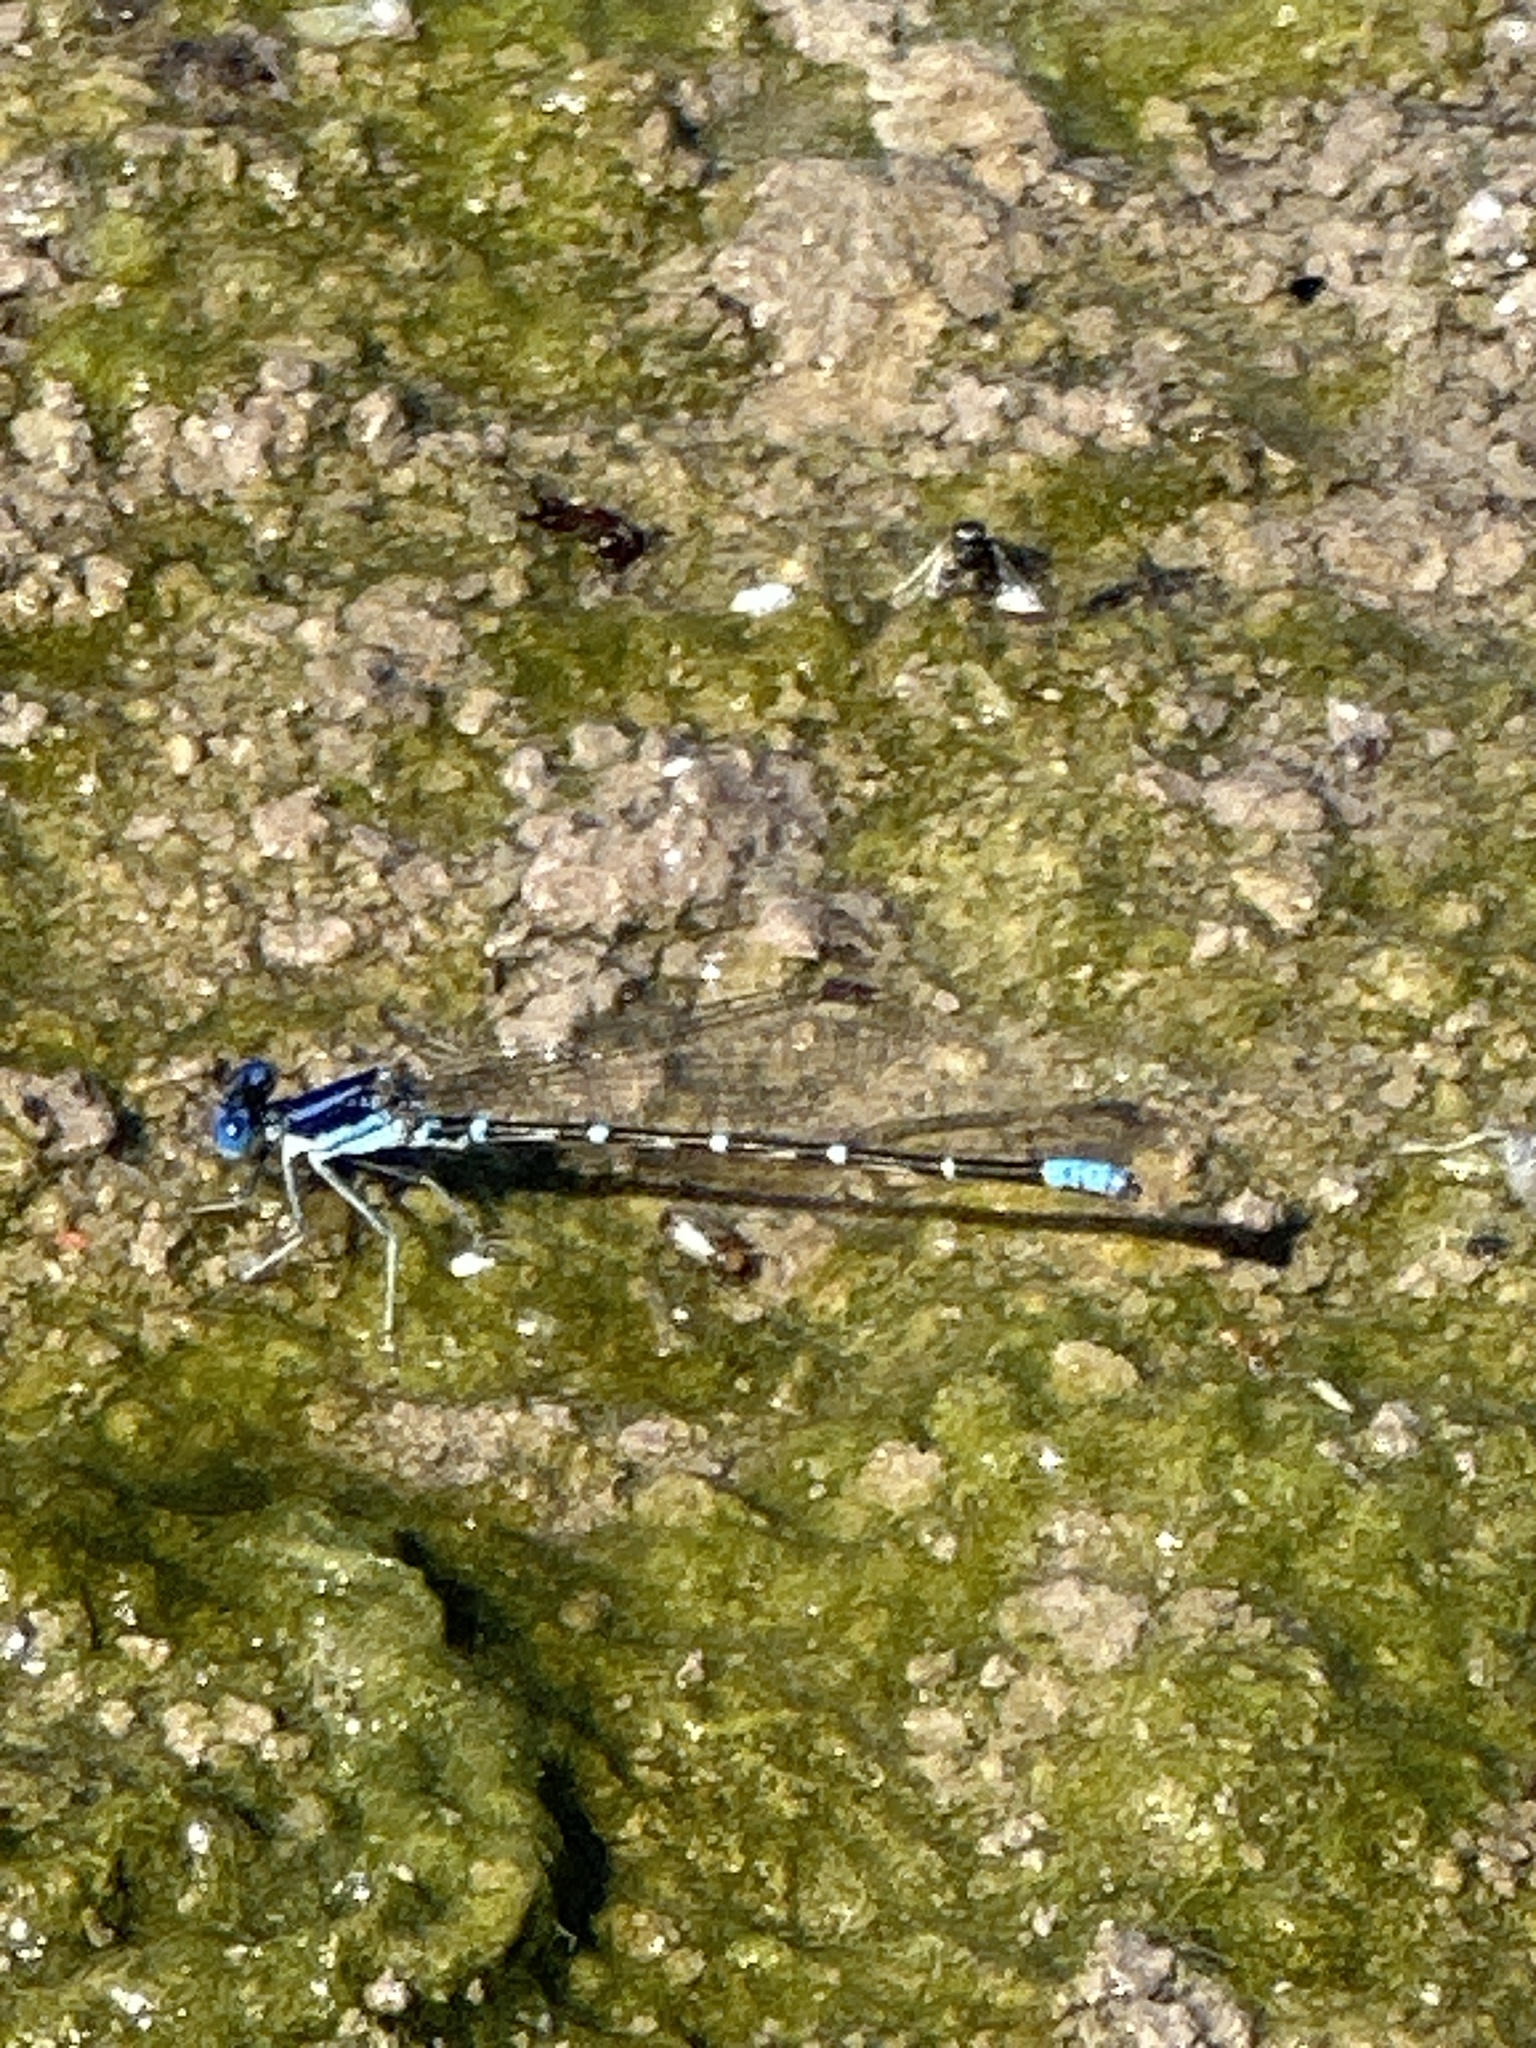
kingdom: Animalia
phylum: Arthropoda
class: Insecta
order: Odonata
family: Coenagrionidae
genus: Argia
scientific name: Argia sedula
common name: Blue-ringed dancer
